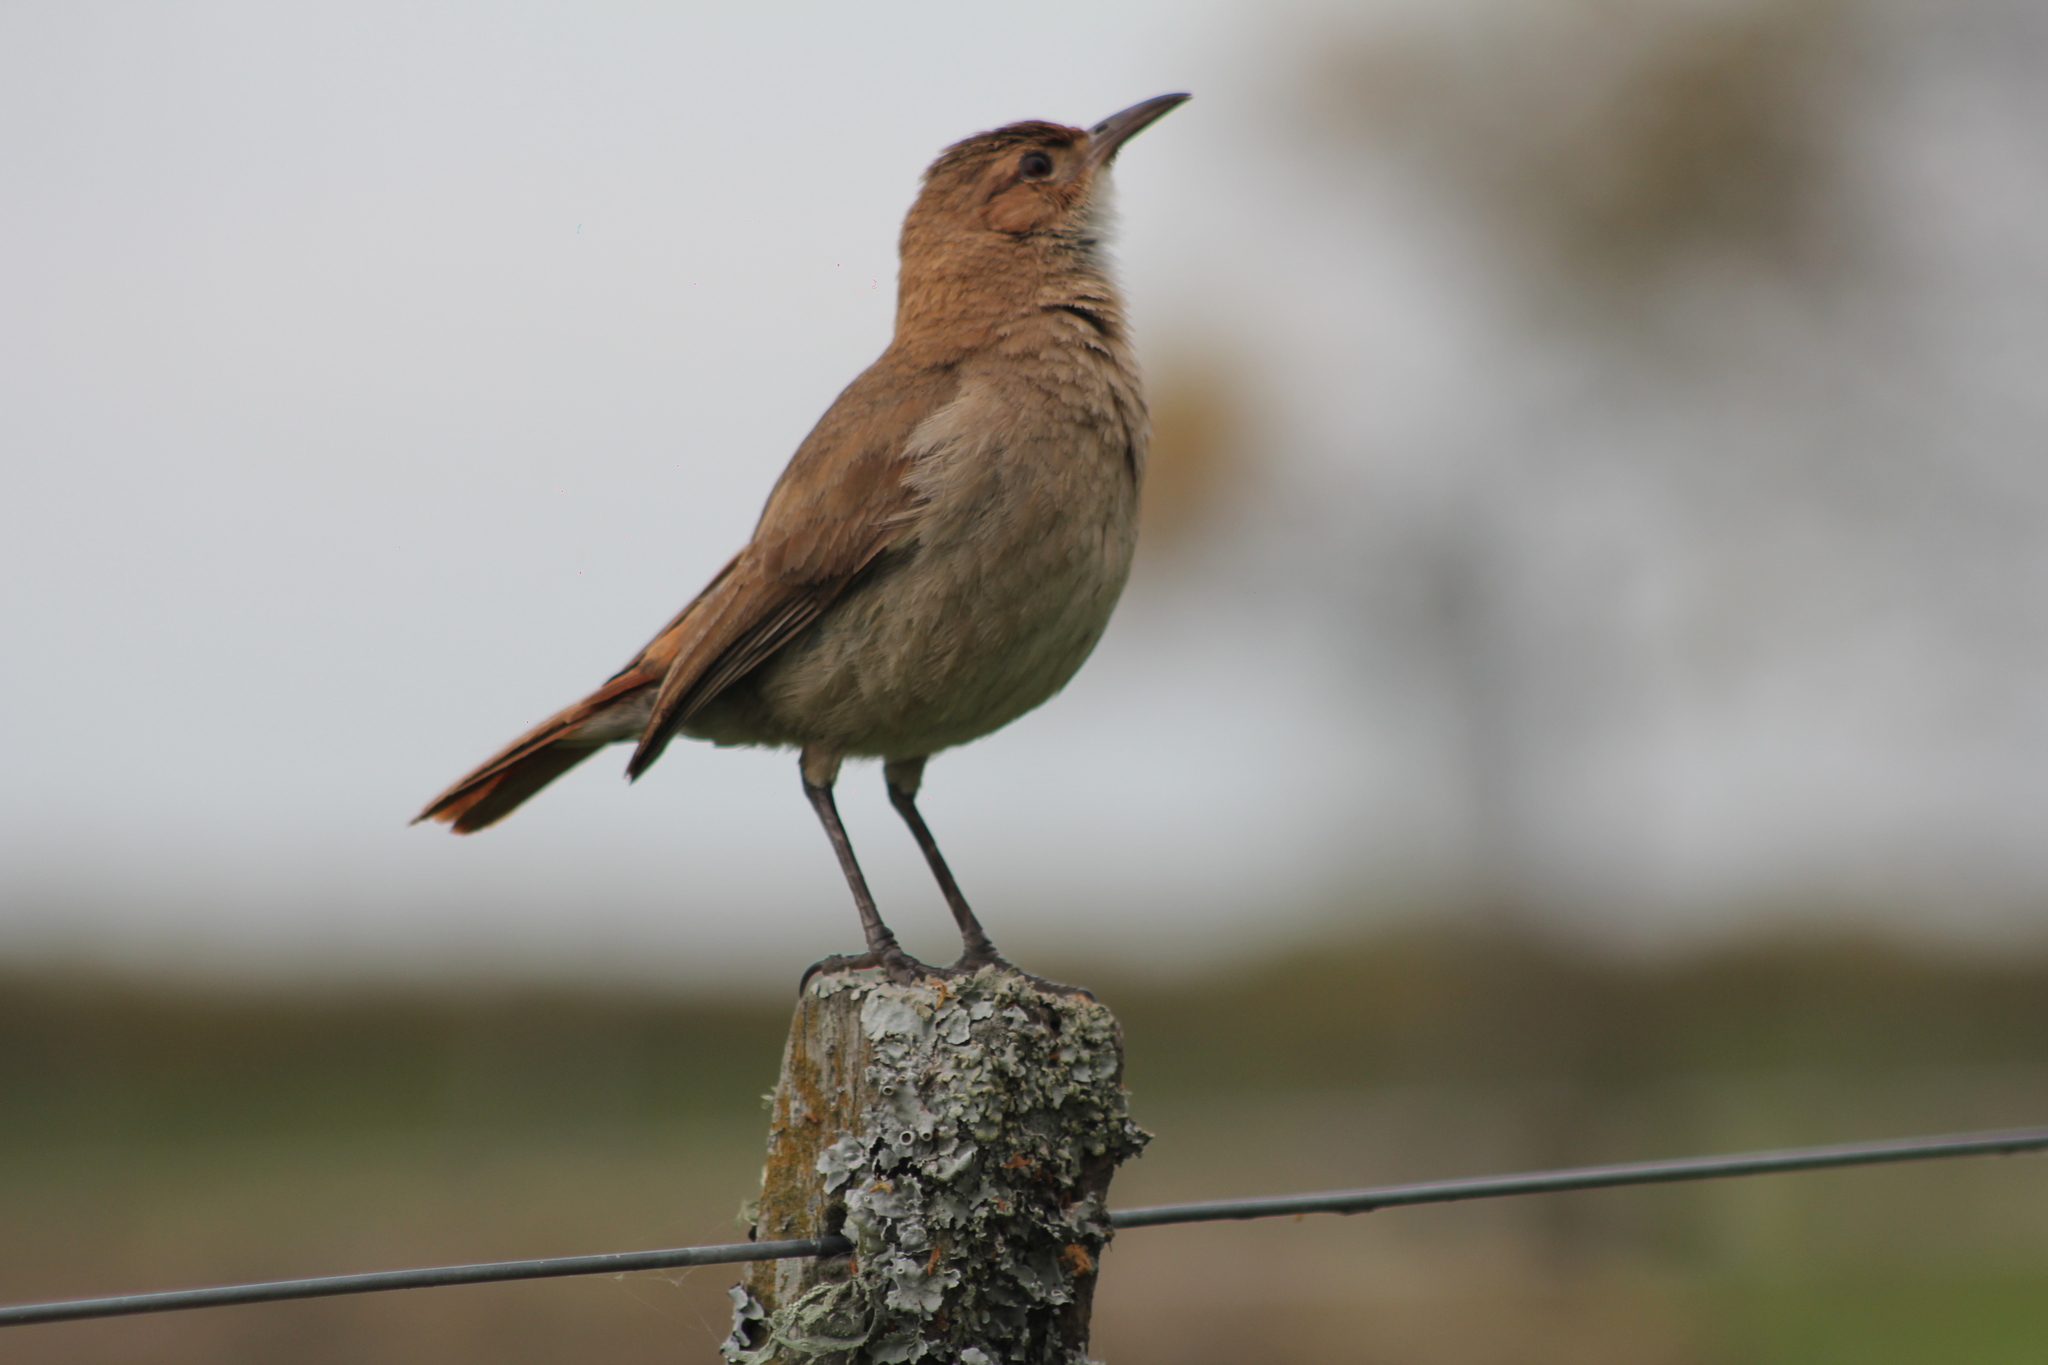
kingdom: Animalia
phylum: Chordata
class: Aves
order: Passeriformes
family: Furnariidae
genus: Furnarius
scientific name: Furnarius rufus
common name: Rufous hornero
